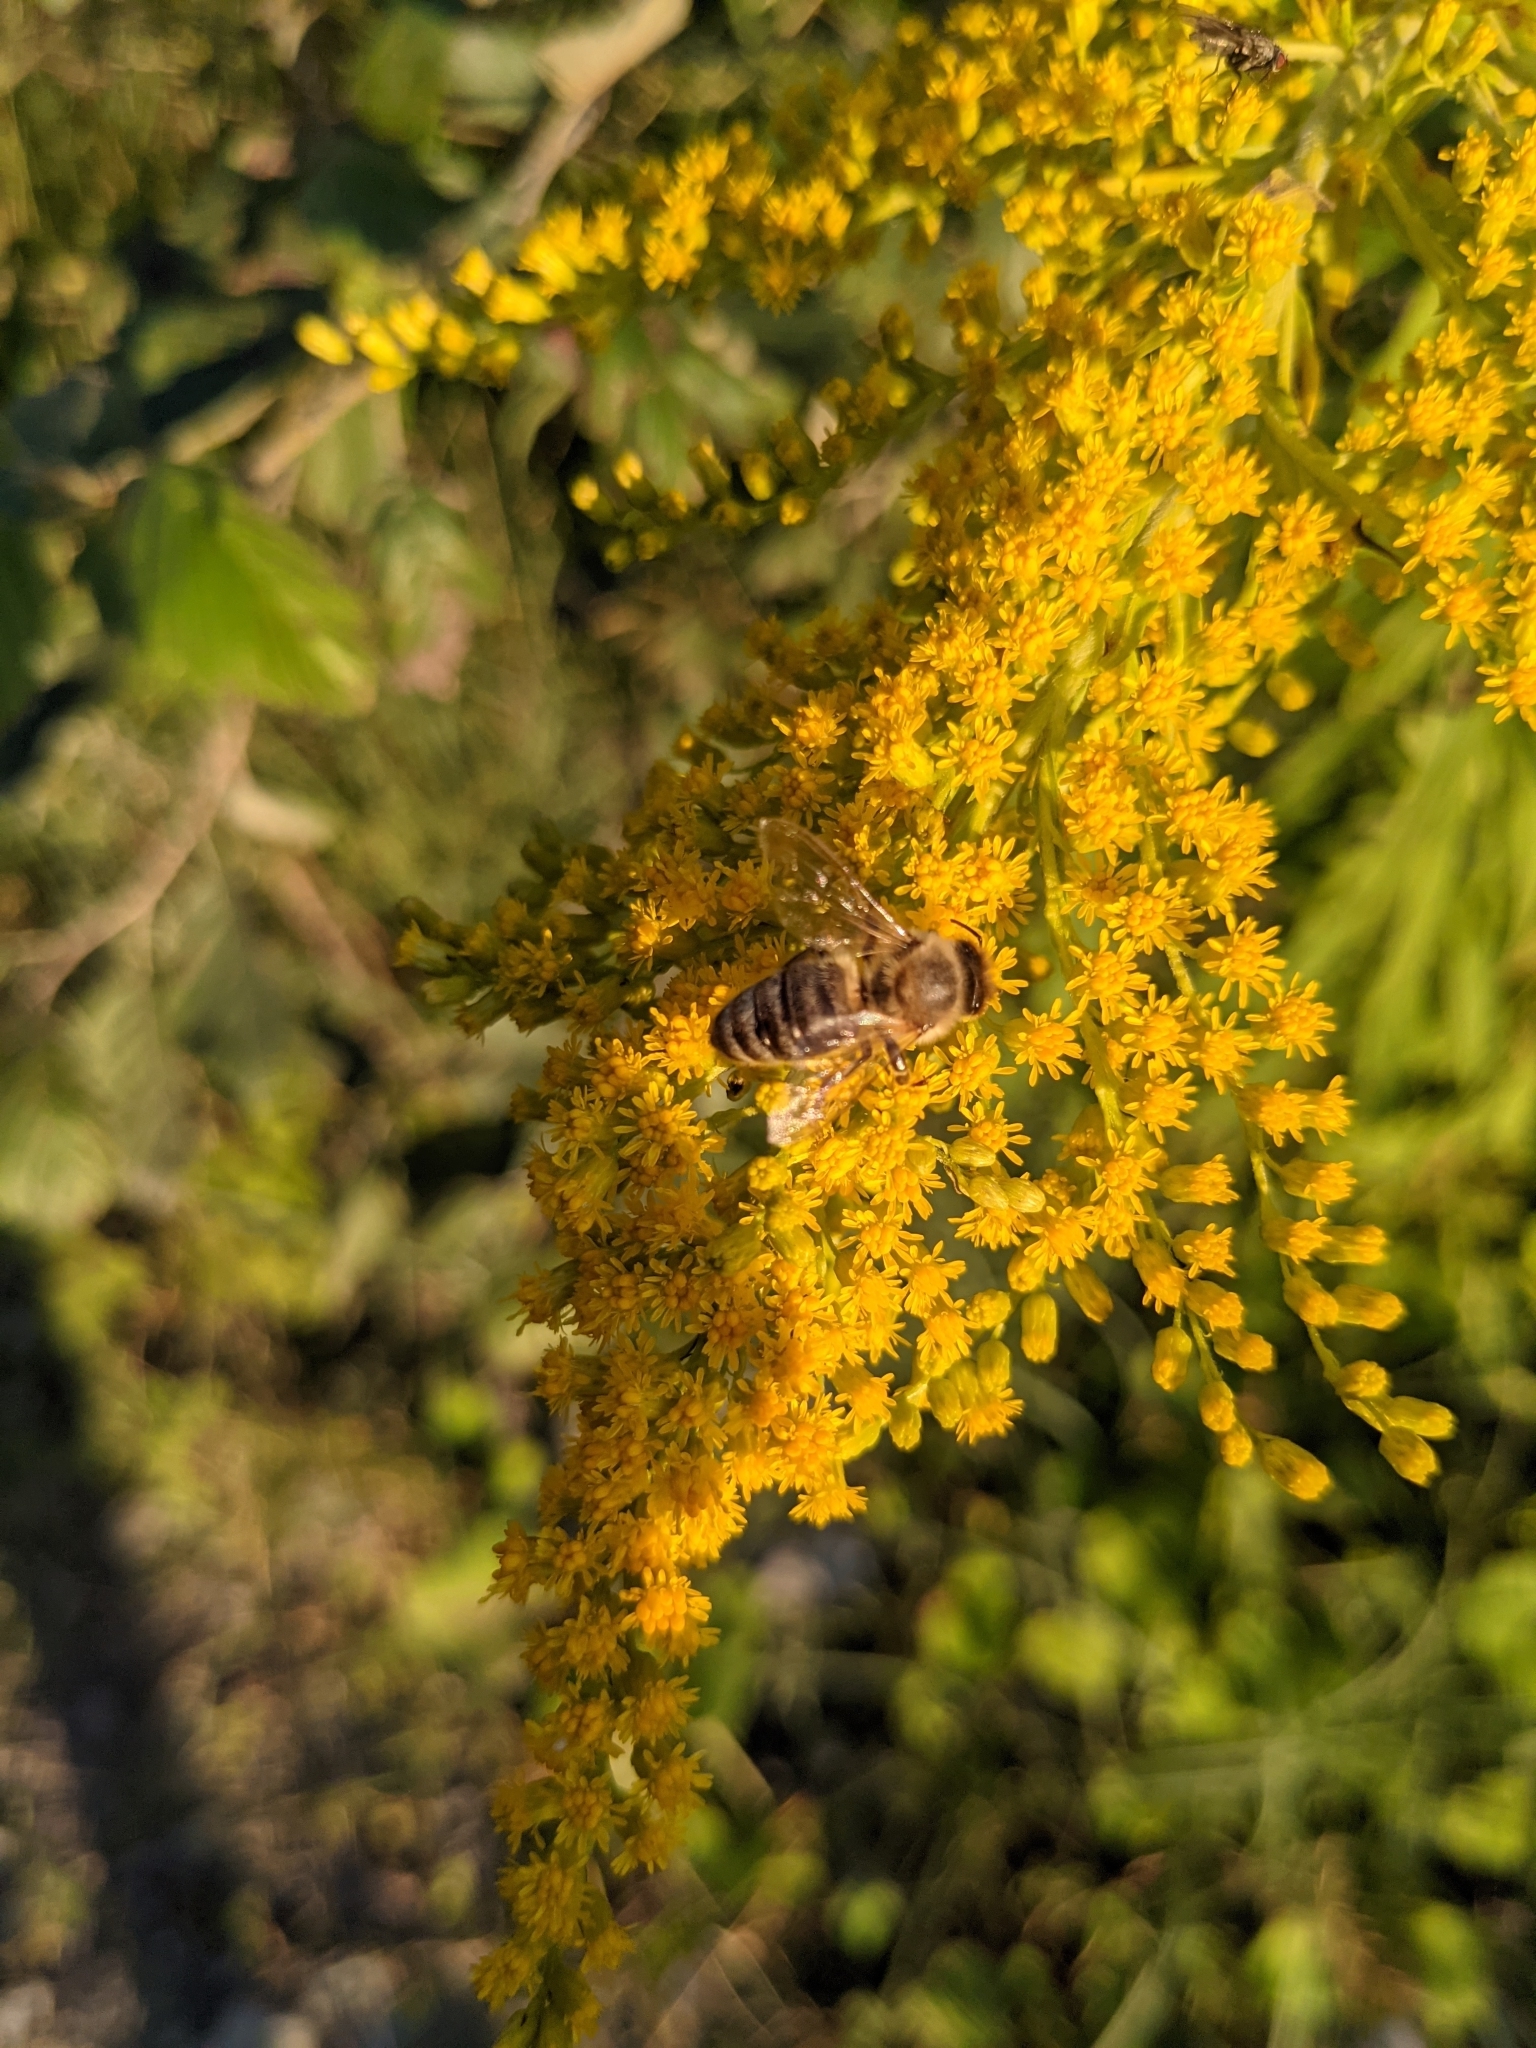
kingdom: Animalia
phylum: Arthropoda
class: Insecta
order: Hymenoptera
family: Apidae
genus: Apis
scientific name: Apis mellifera
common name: Honey bee
